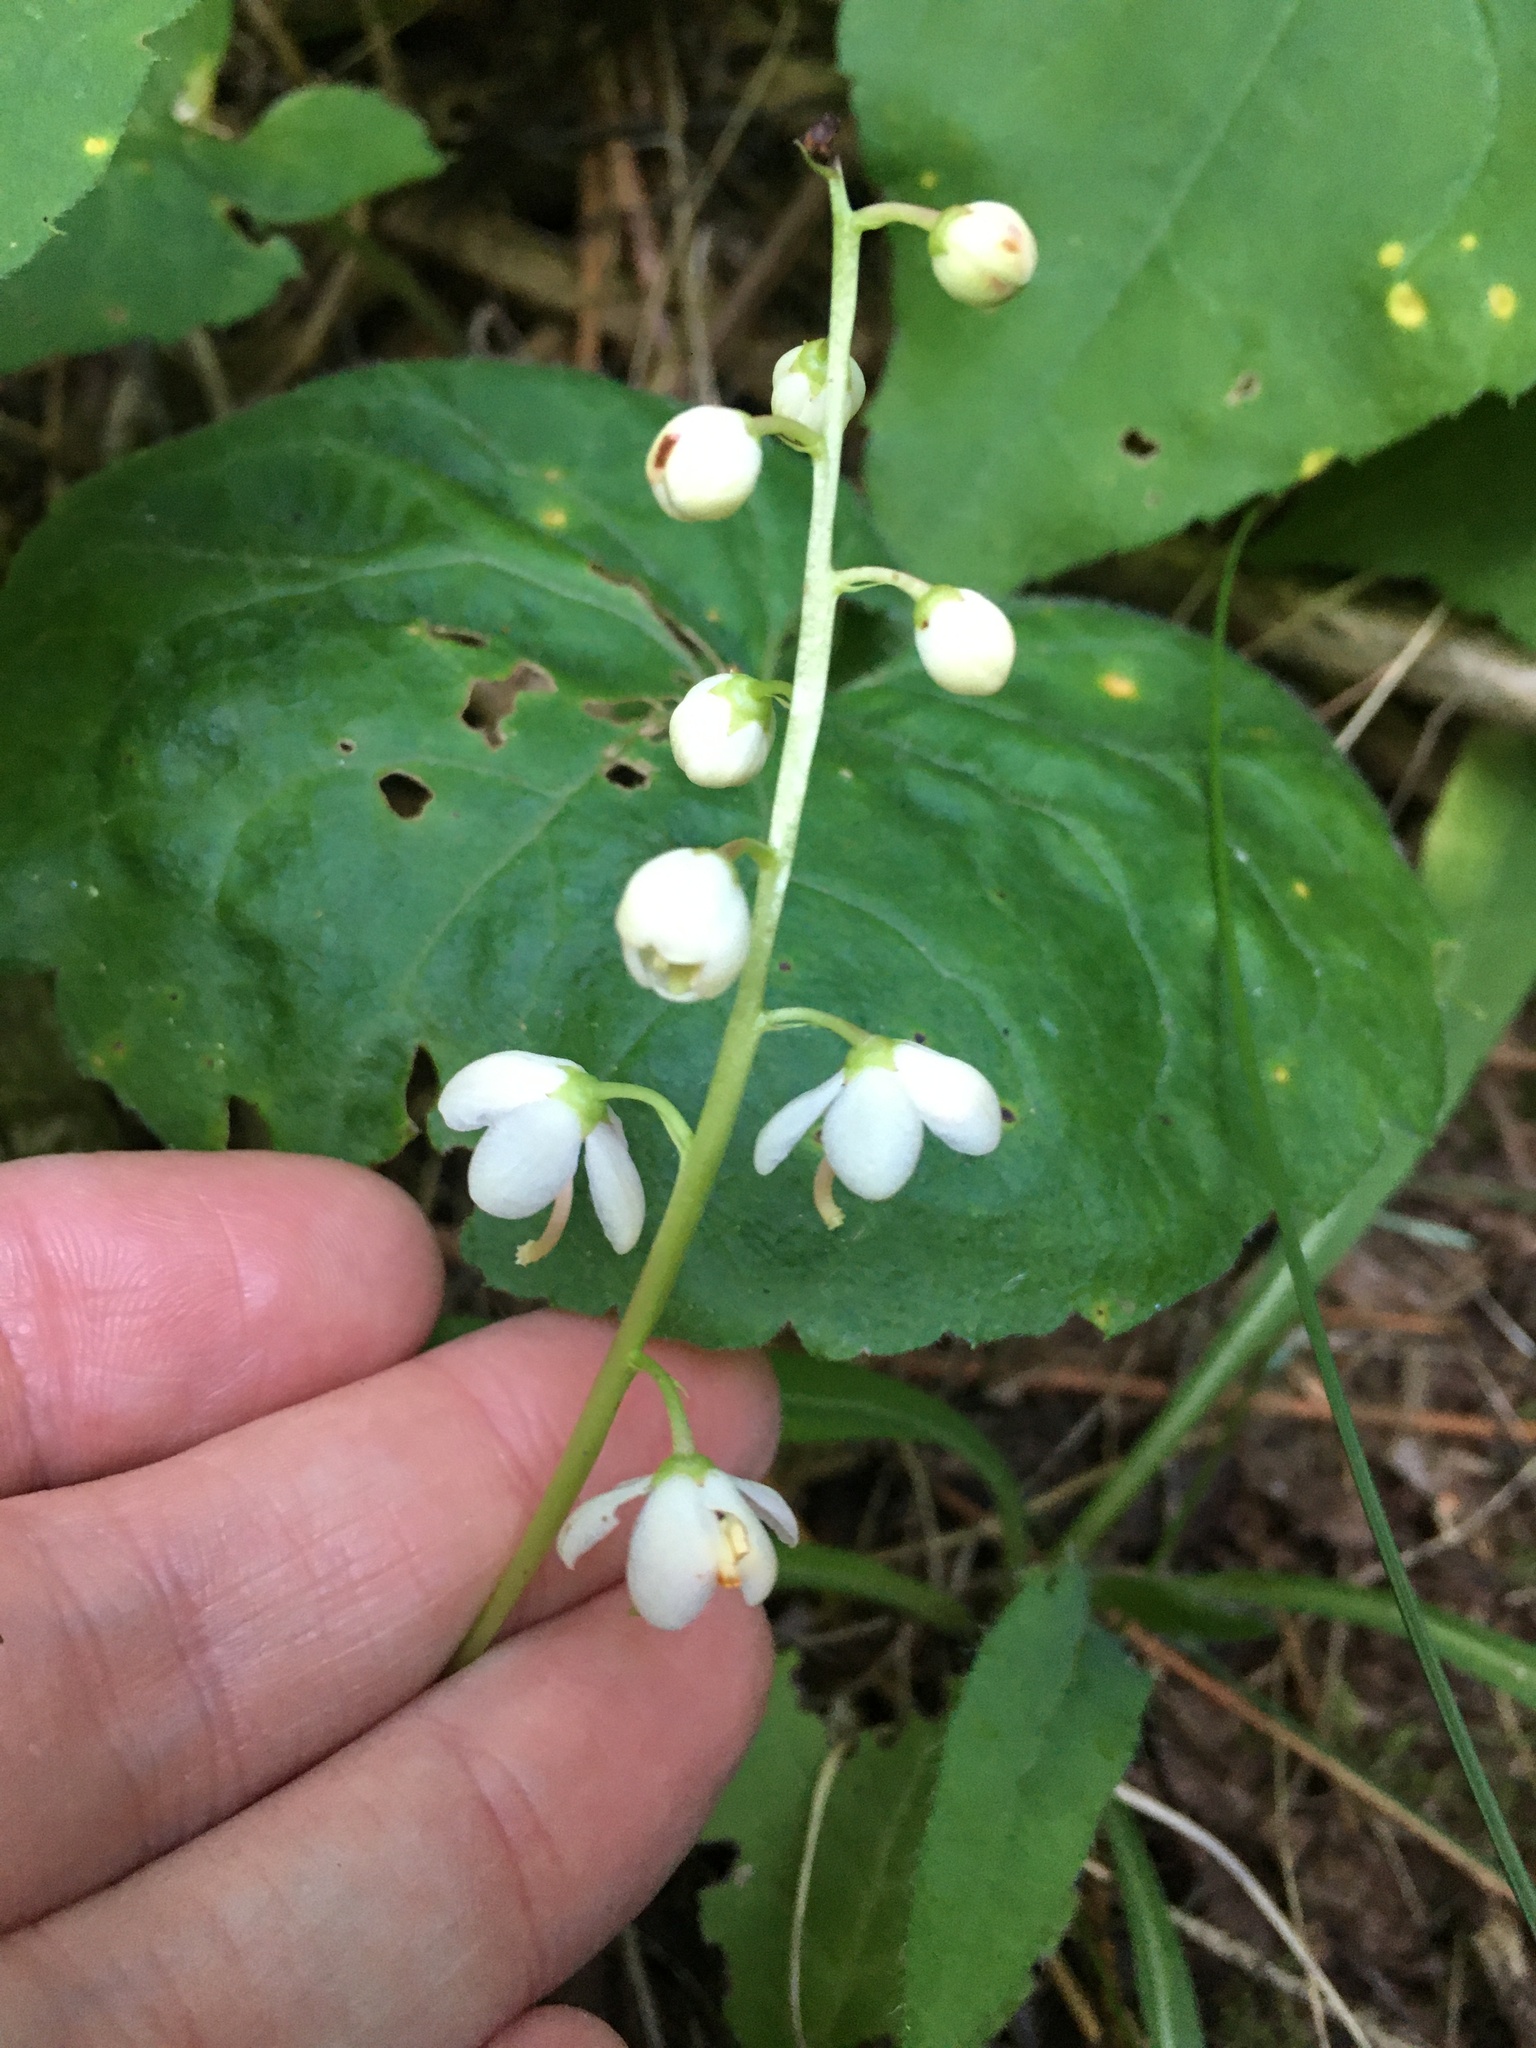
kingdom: Plantae
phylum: Tracheophyta
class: Magnoliopsida
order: Ericales
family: Ericaceae
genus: Pyrola
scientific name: Pyrola elliptica
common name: Shinleaf
